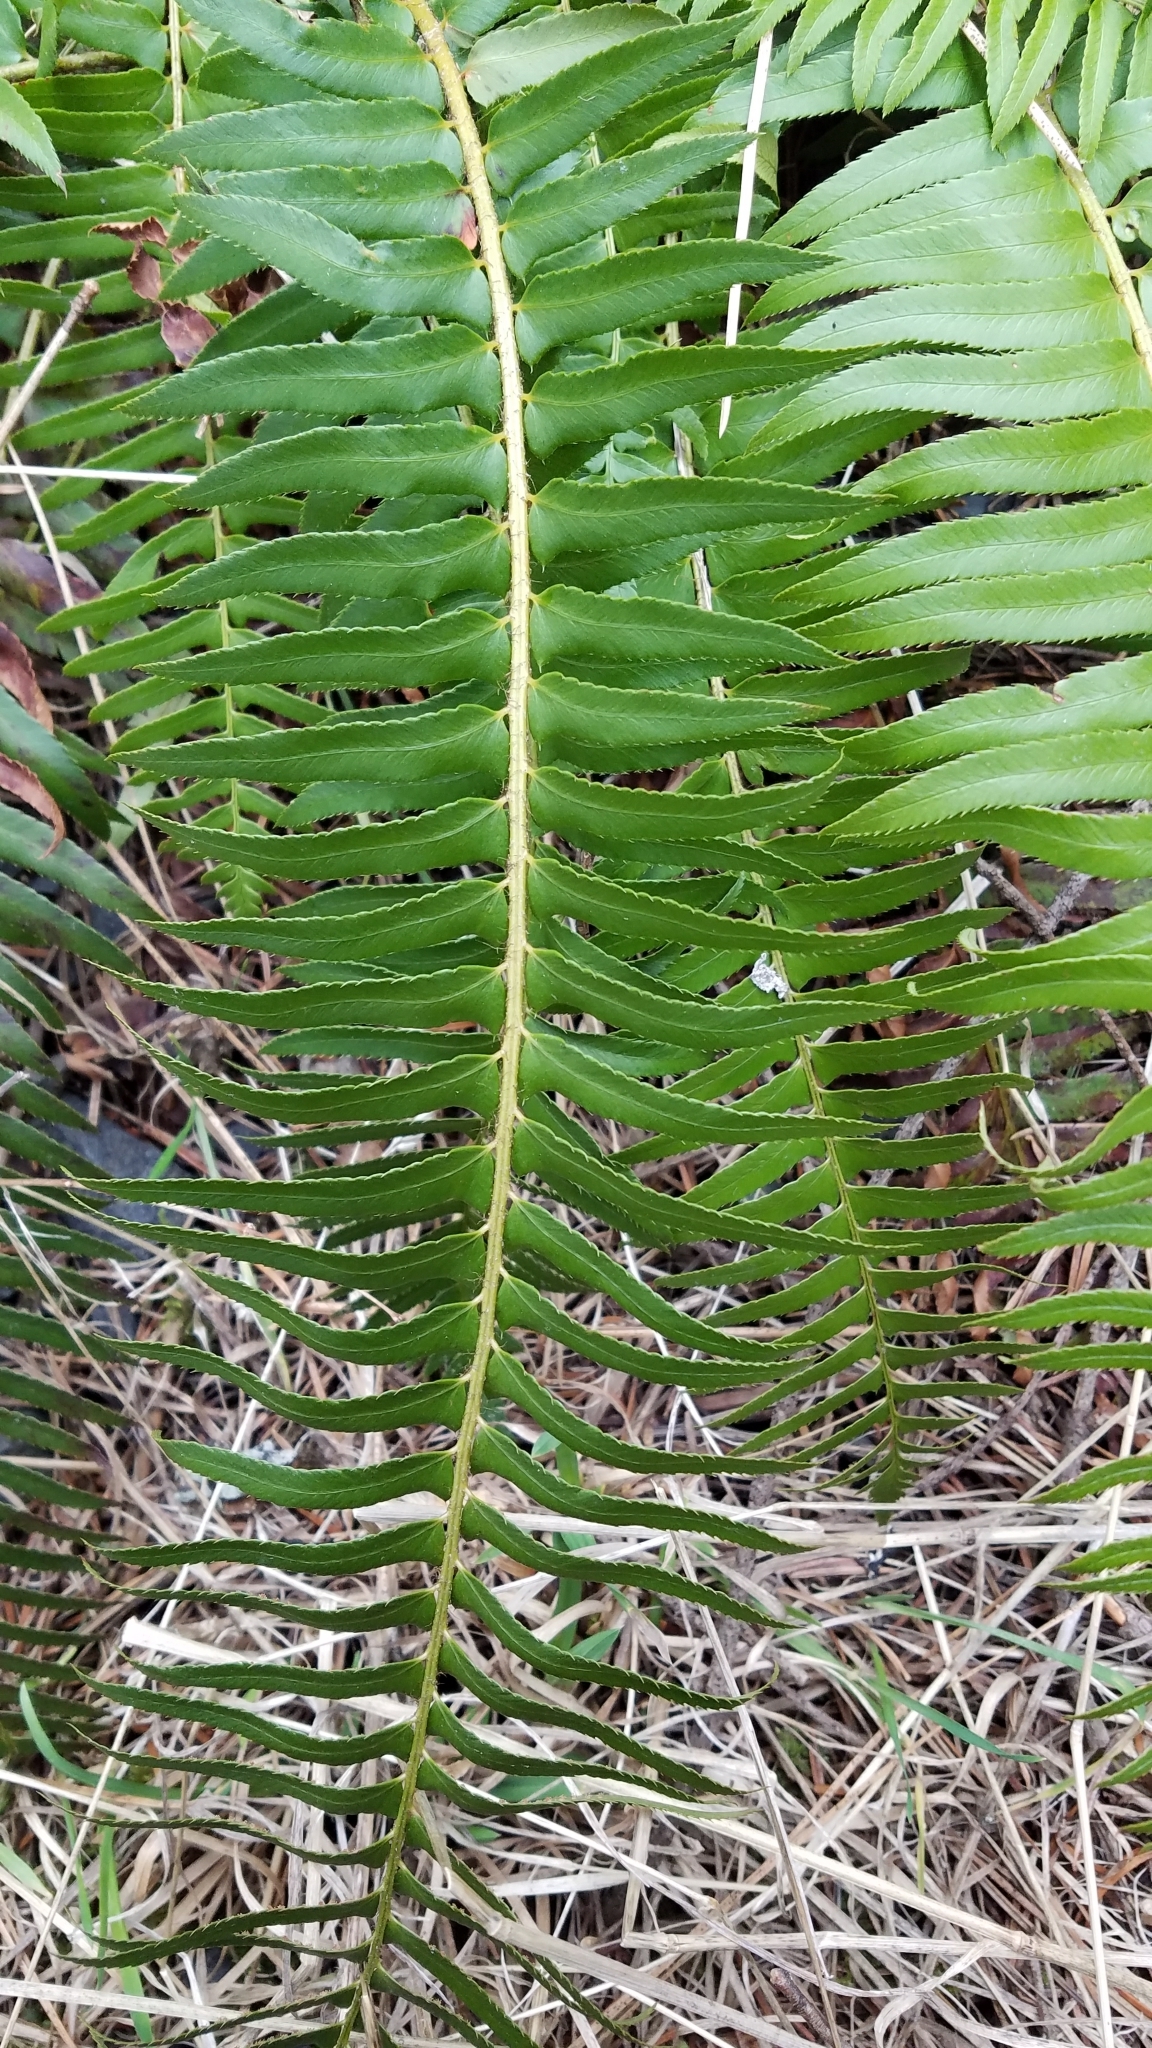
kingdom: Plantae
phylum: Tracheophyta
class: Polypodiopsida
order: Polypodiales
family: Dryopteridaceae
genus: Polystichum
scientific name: Polystichum munitum
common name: Western sword-fern
